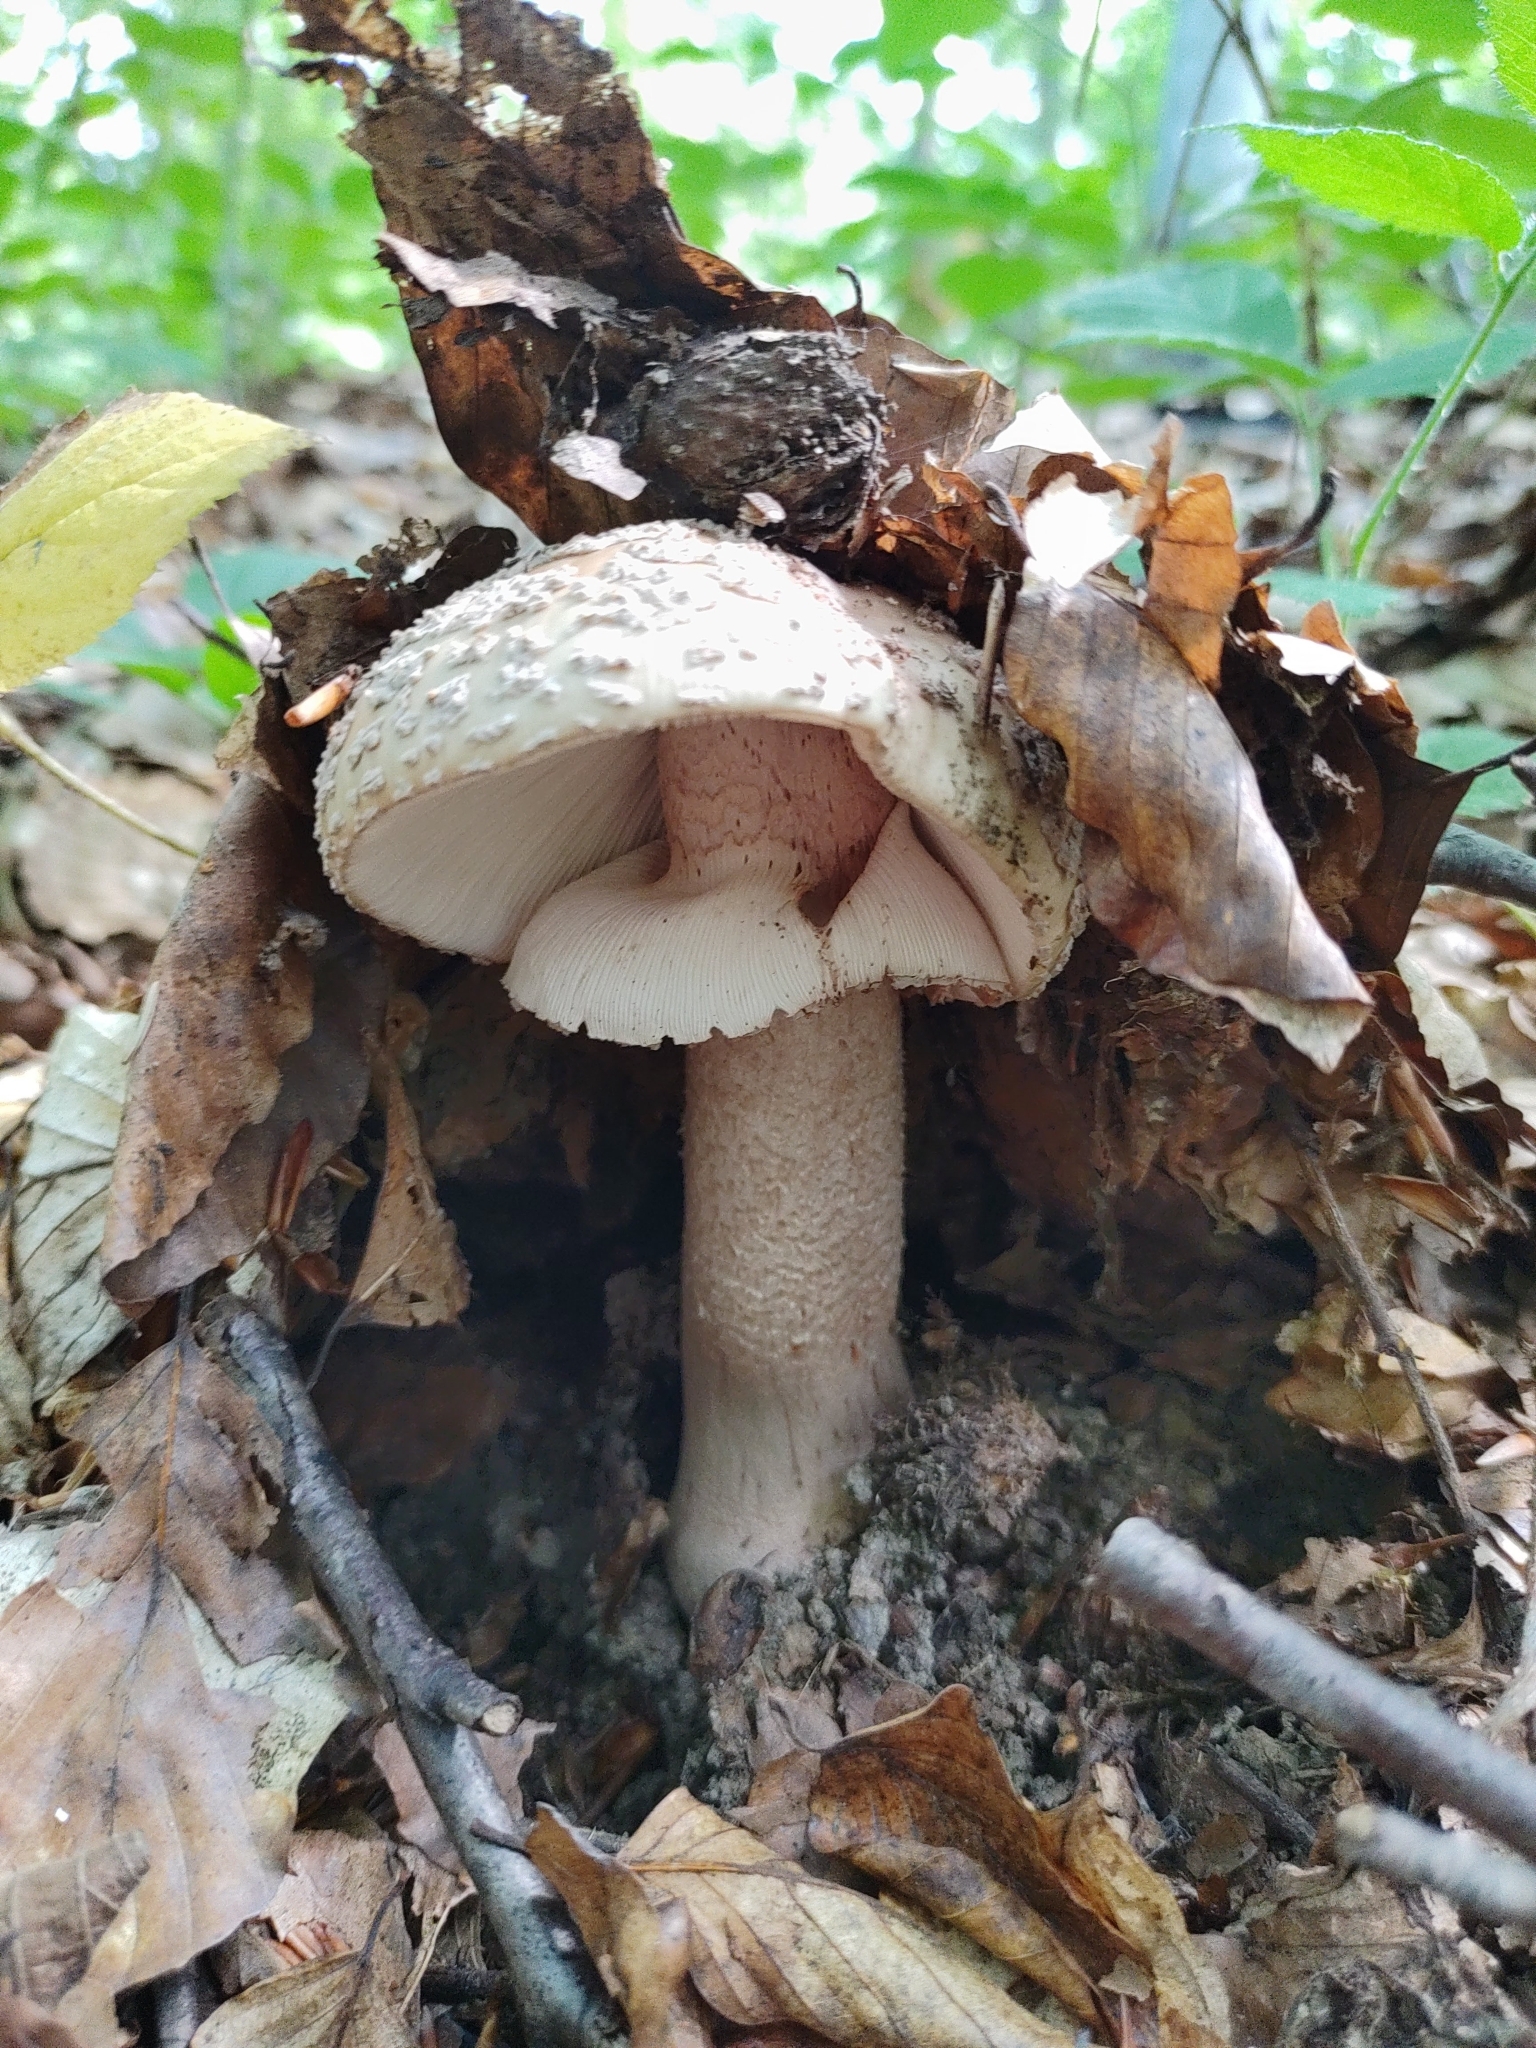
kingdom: Fungi
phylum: Basidiomycota
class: Agaricomycetes
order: Agaricales
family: Amanitaceae
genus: Amanita
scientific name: Amanita rubescens
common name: Blusher
